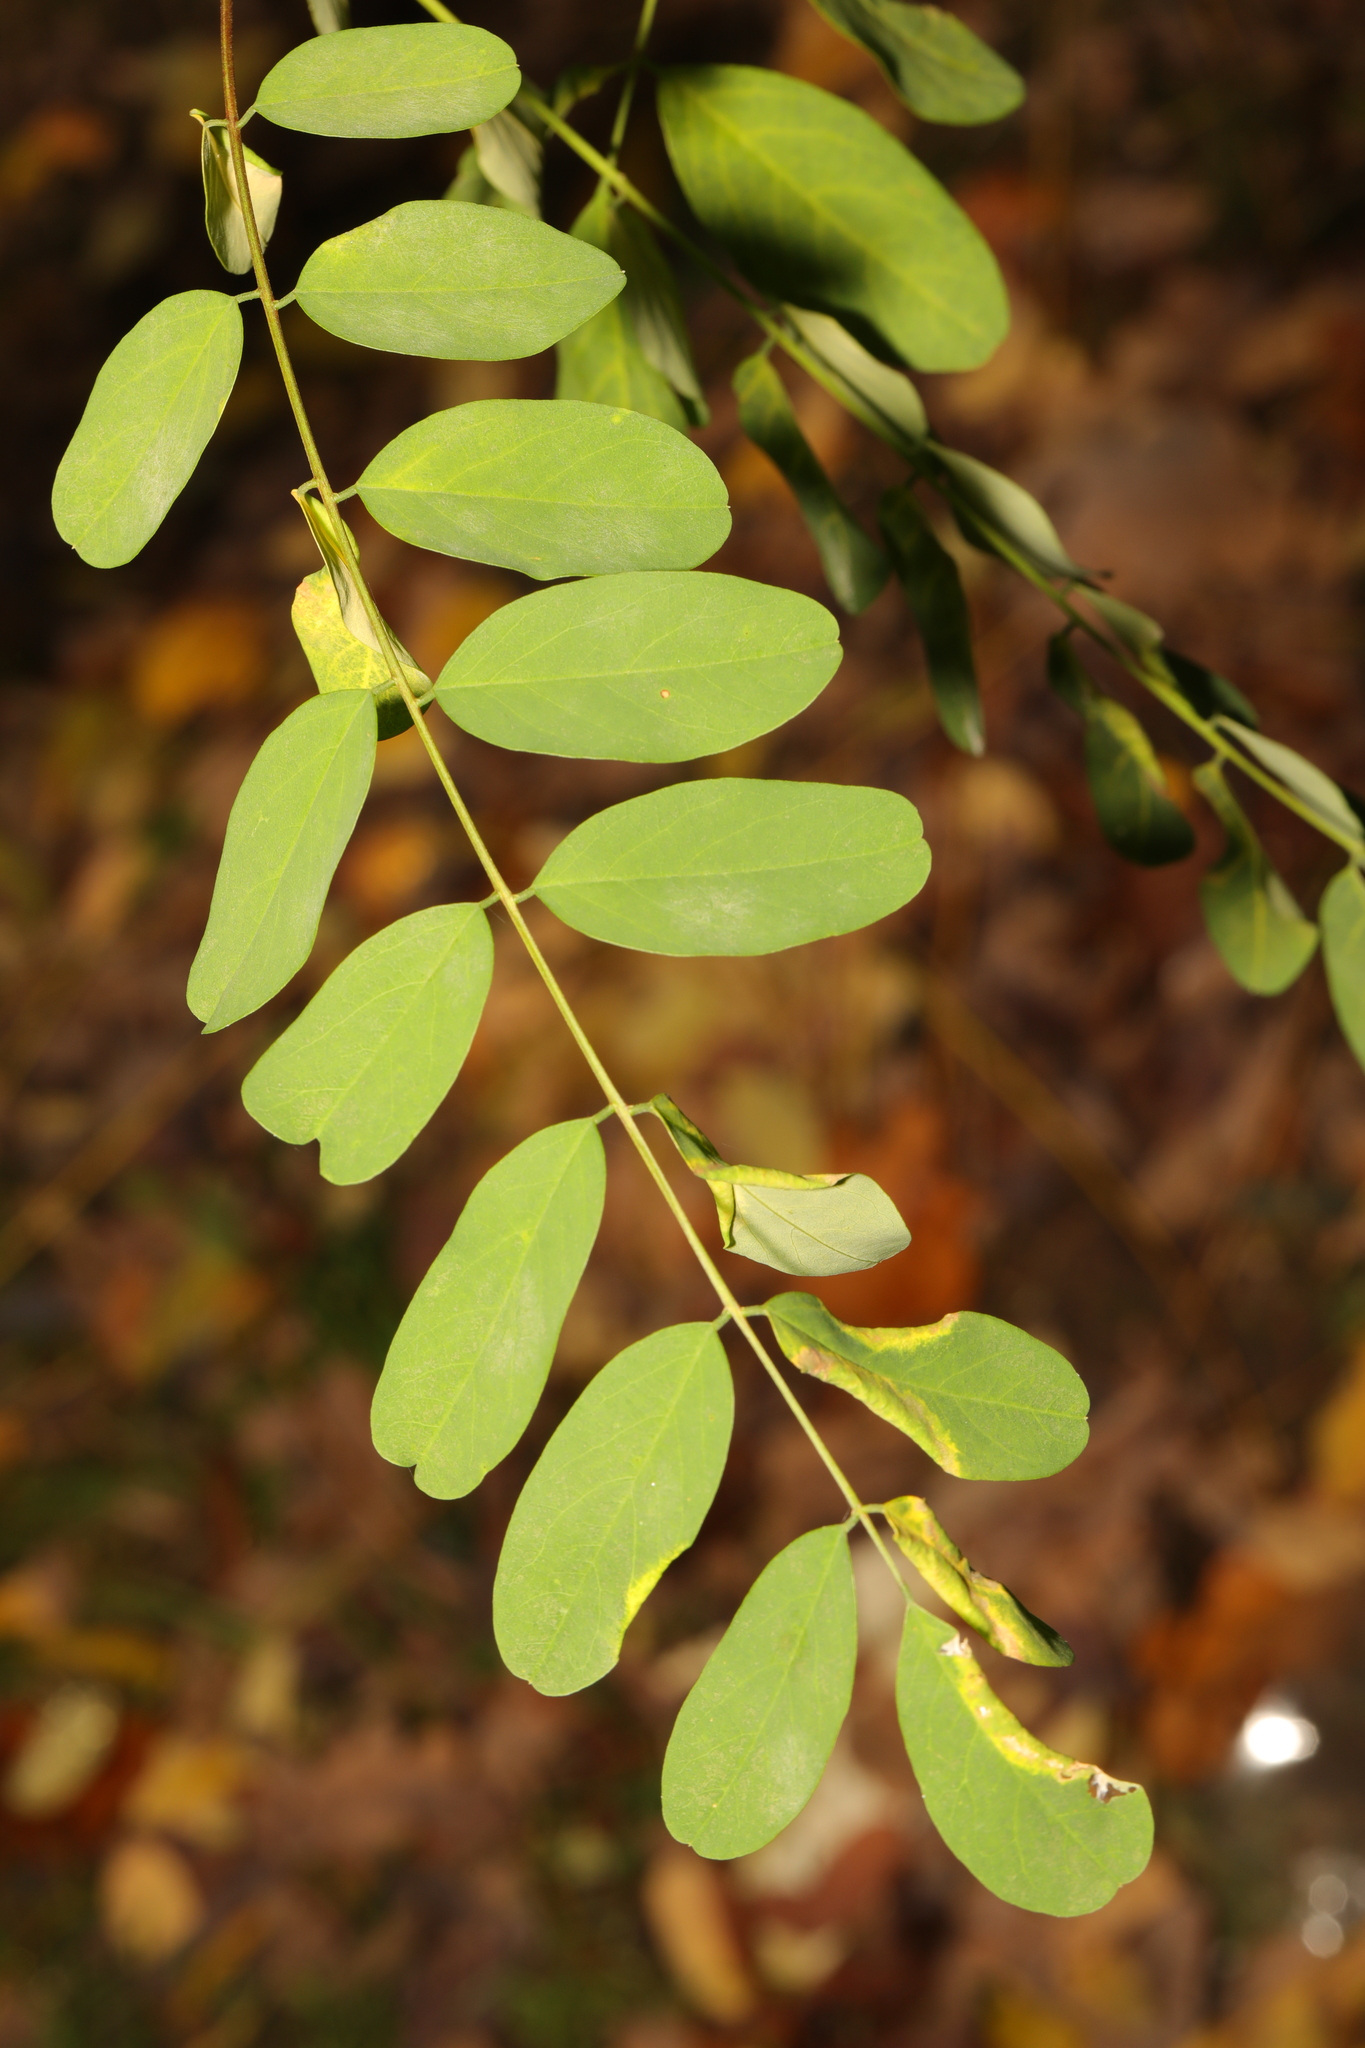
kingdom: Plantae
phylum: Tracheophyta
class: Magnoliopsida
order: Fabales
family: Fabaceae
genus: Robinia
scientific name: Robinia pseudoacacia
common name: Black locust
